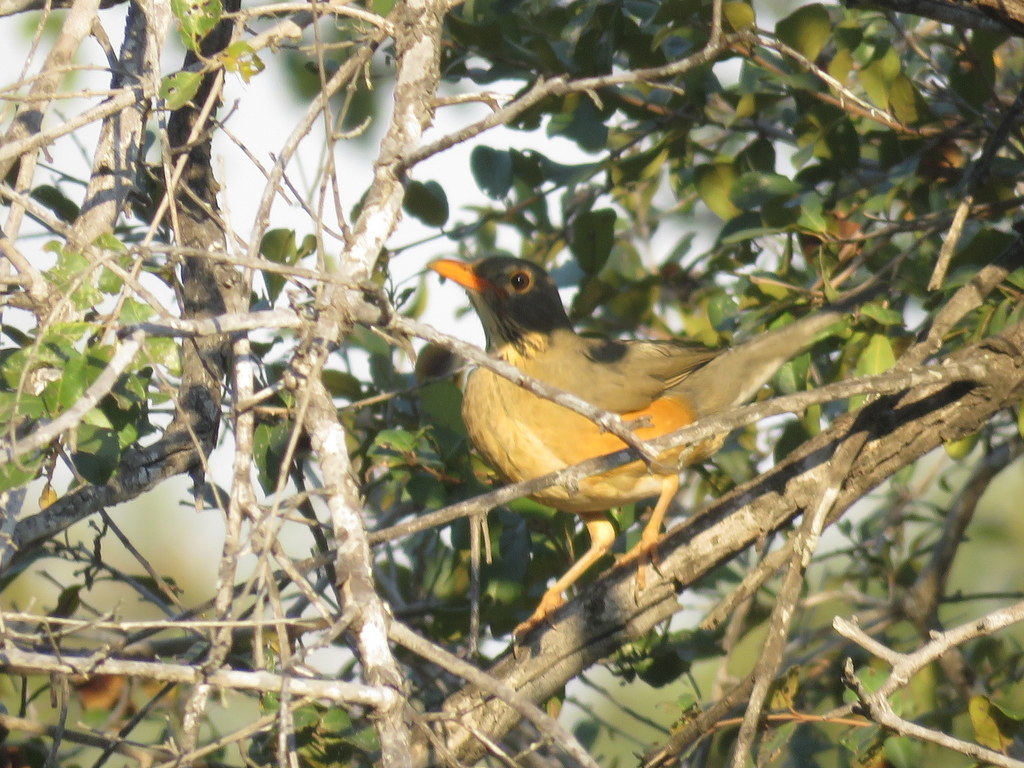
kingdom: Animalia
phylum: Chordata
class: Aves
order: Passeriformes
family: Turdidae
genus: Turdus
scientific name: Turdus libonyana
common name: Kurrichane thrush
